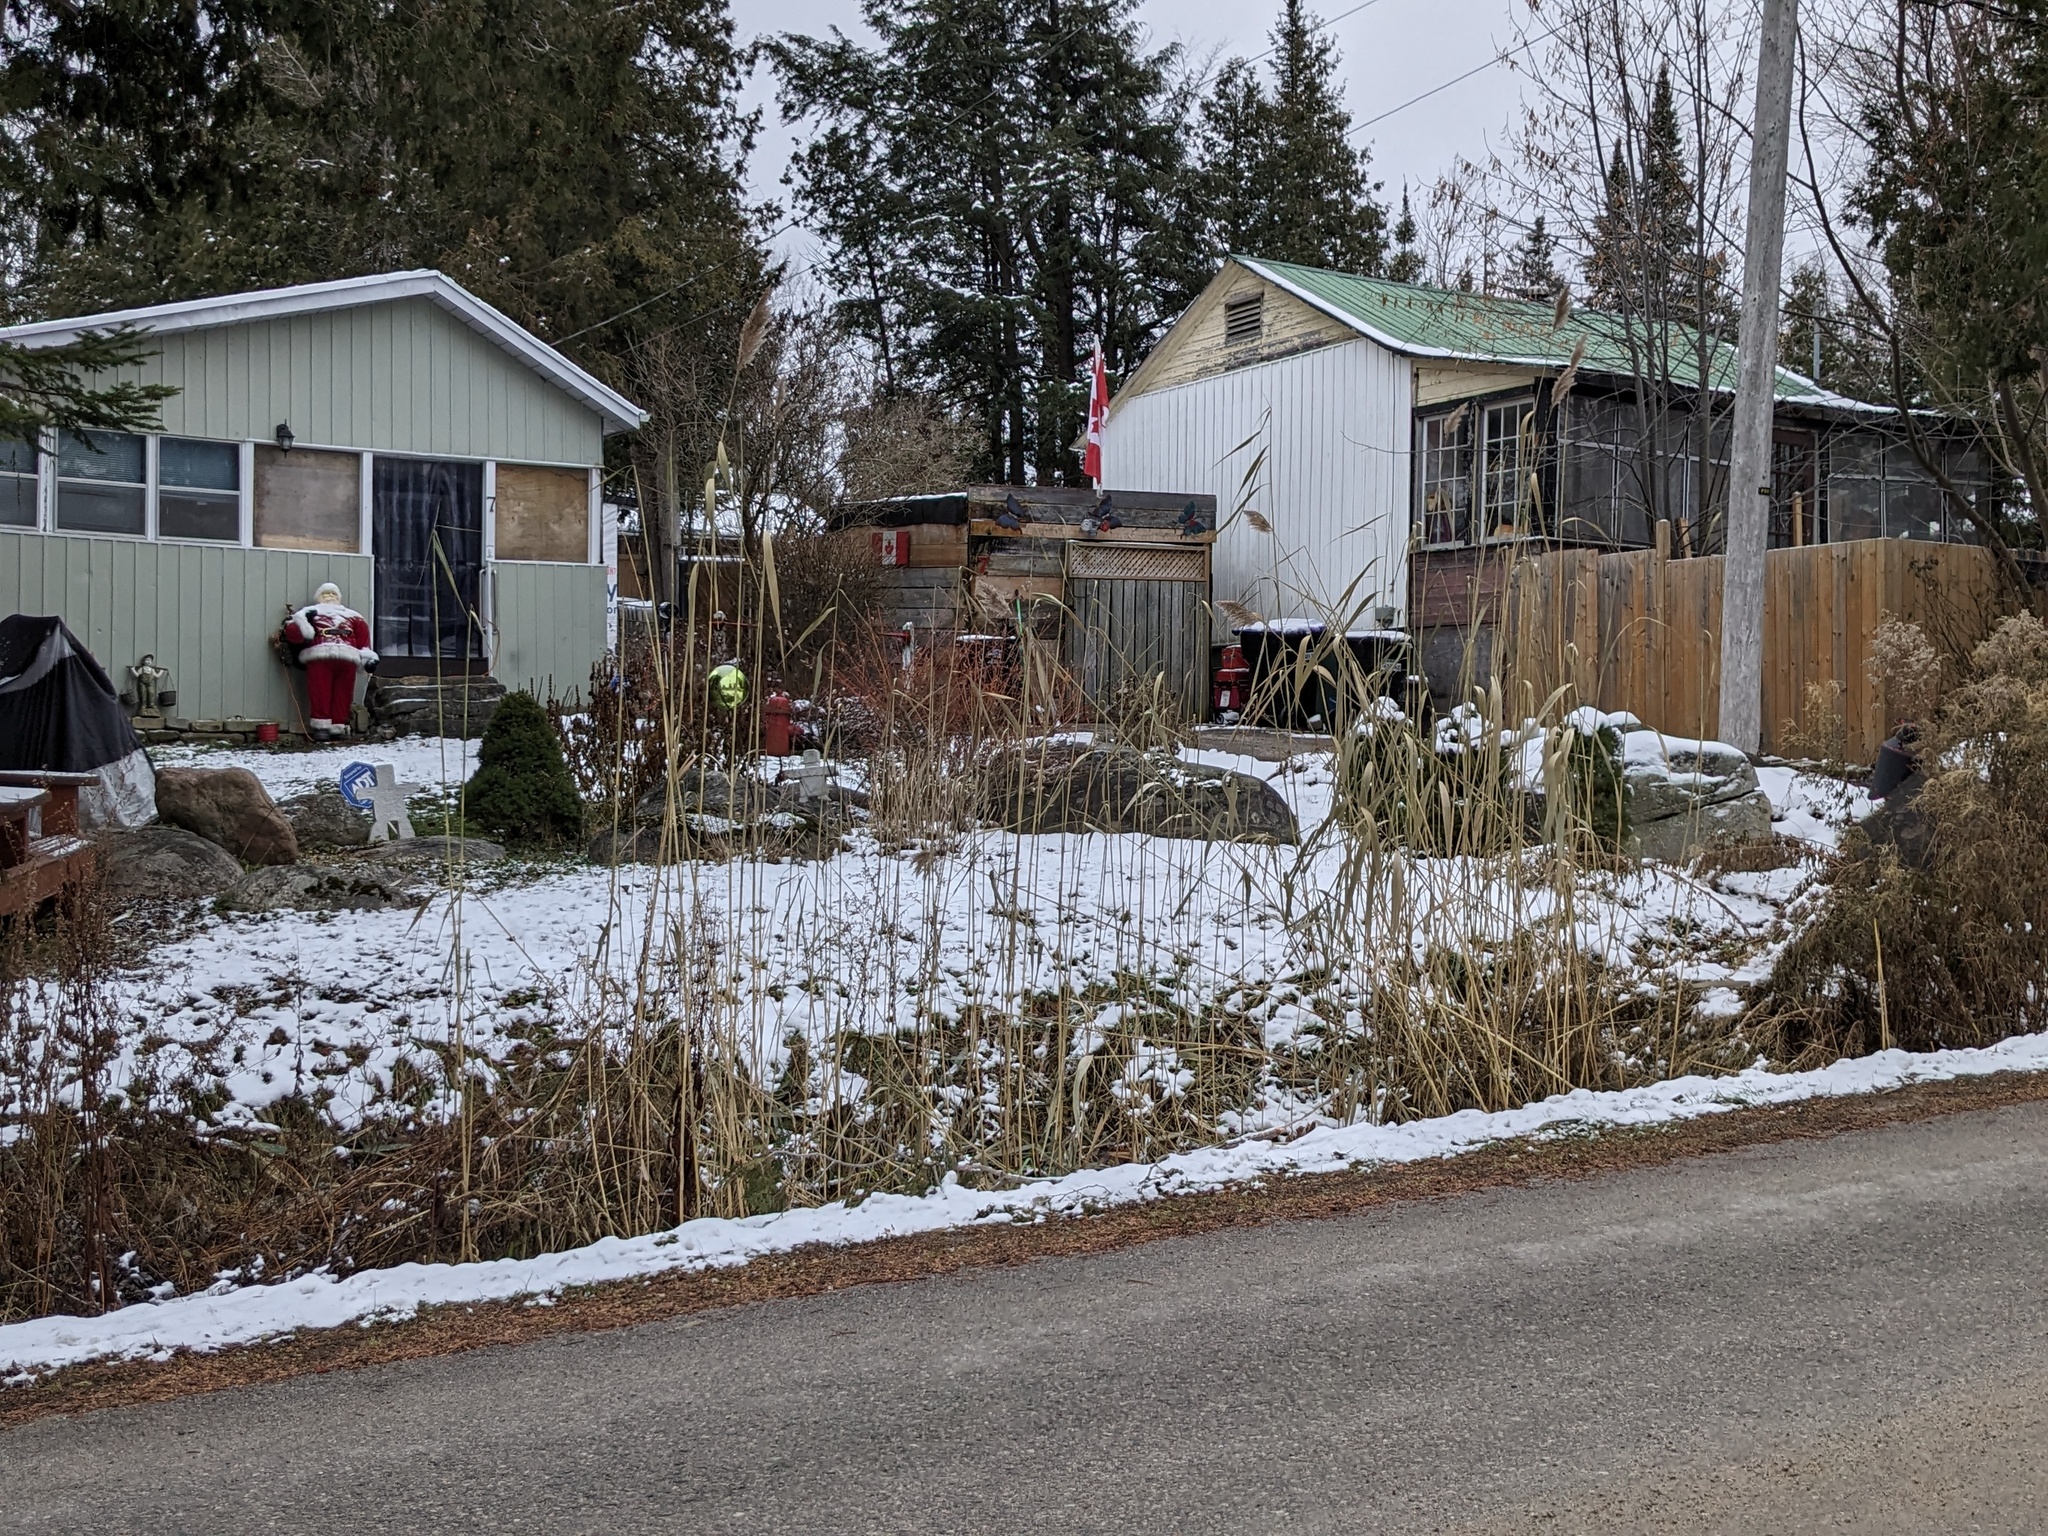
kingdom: Plantae
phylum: Tracheophyta
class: Liliopsida
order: Poales
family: Poaceae
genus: Phragmites
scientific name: Phragmites australis
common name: Common reed
